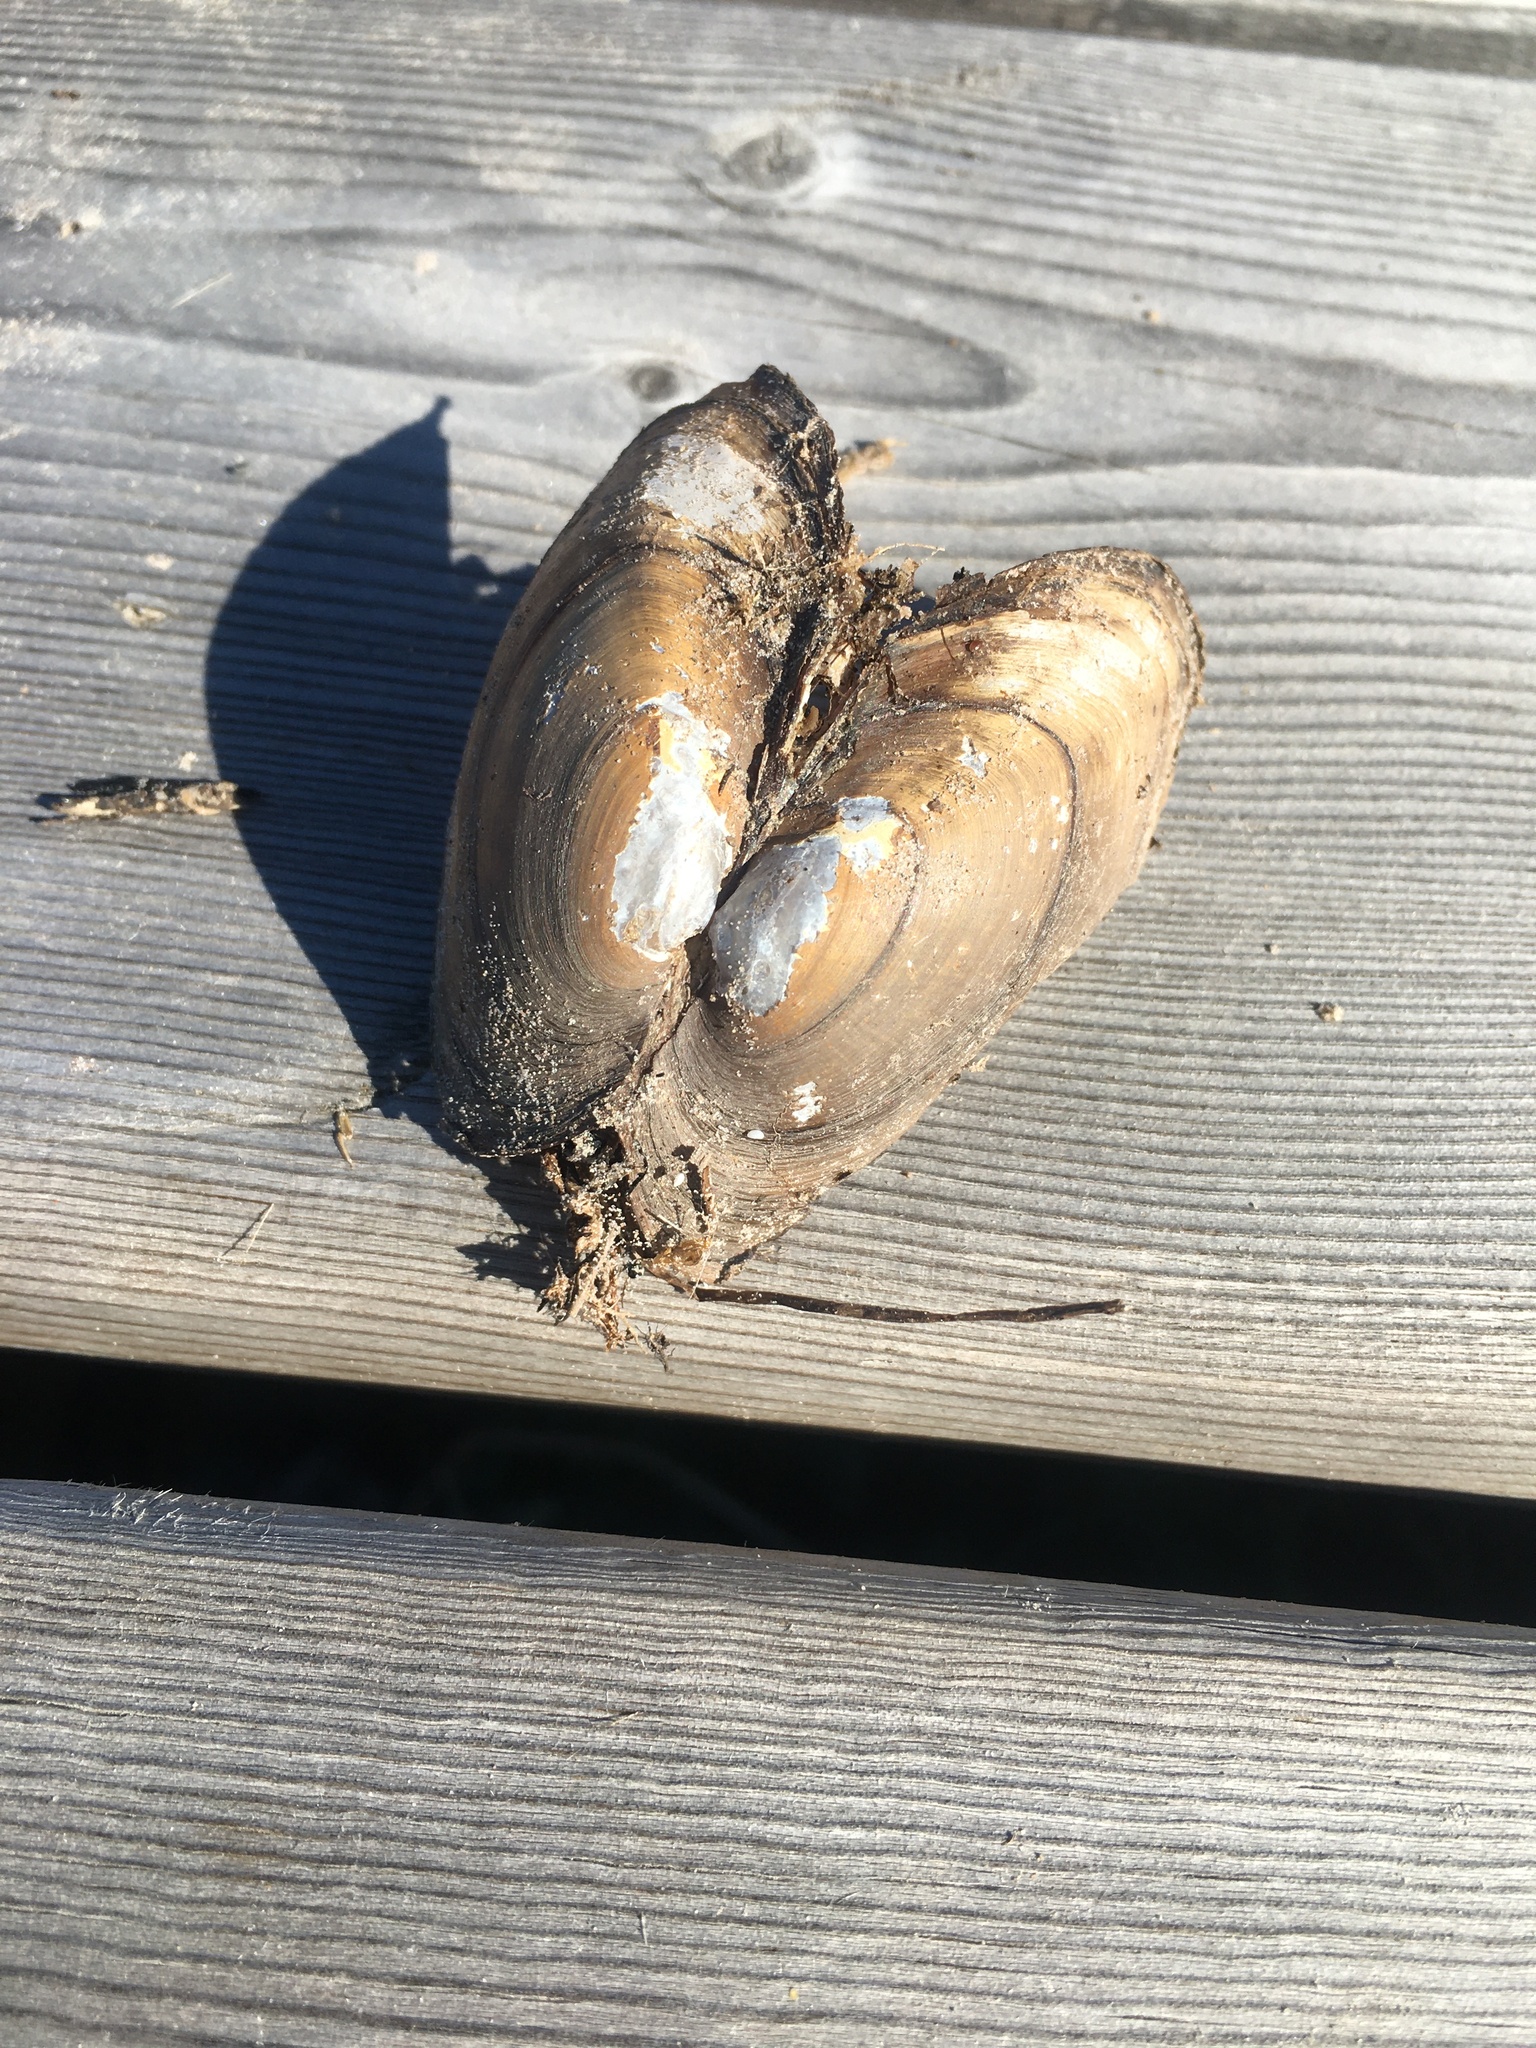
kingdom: Animalia
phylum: Mollusca
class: Bivalvia
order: Unionida
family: Unionidae
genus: Pyganodon
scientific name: Pyganodon grandis
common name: Giant floater
